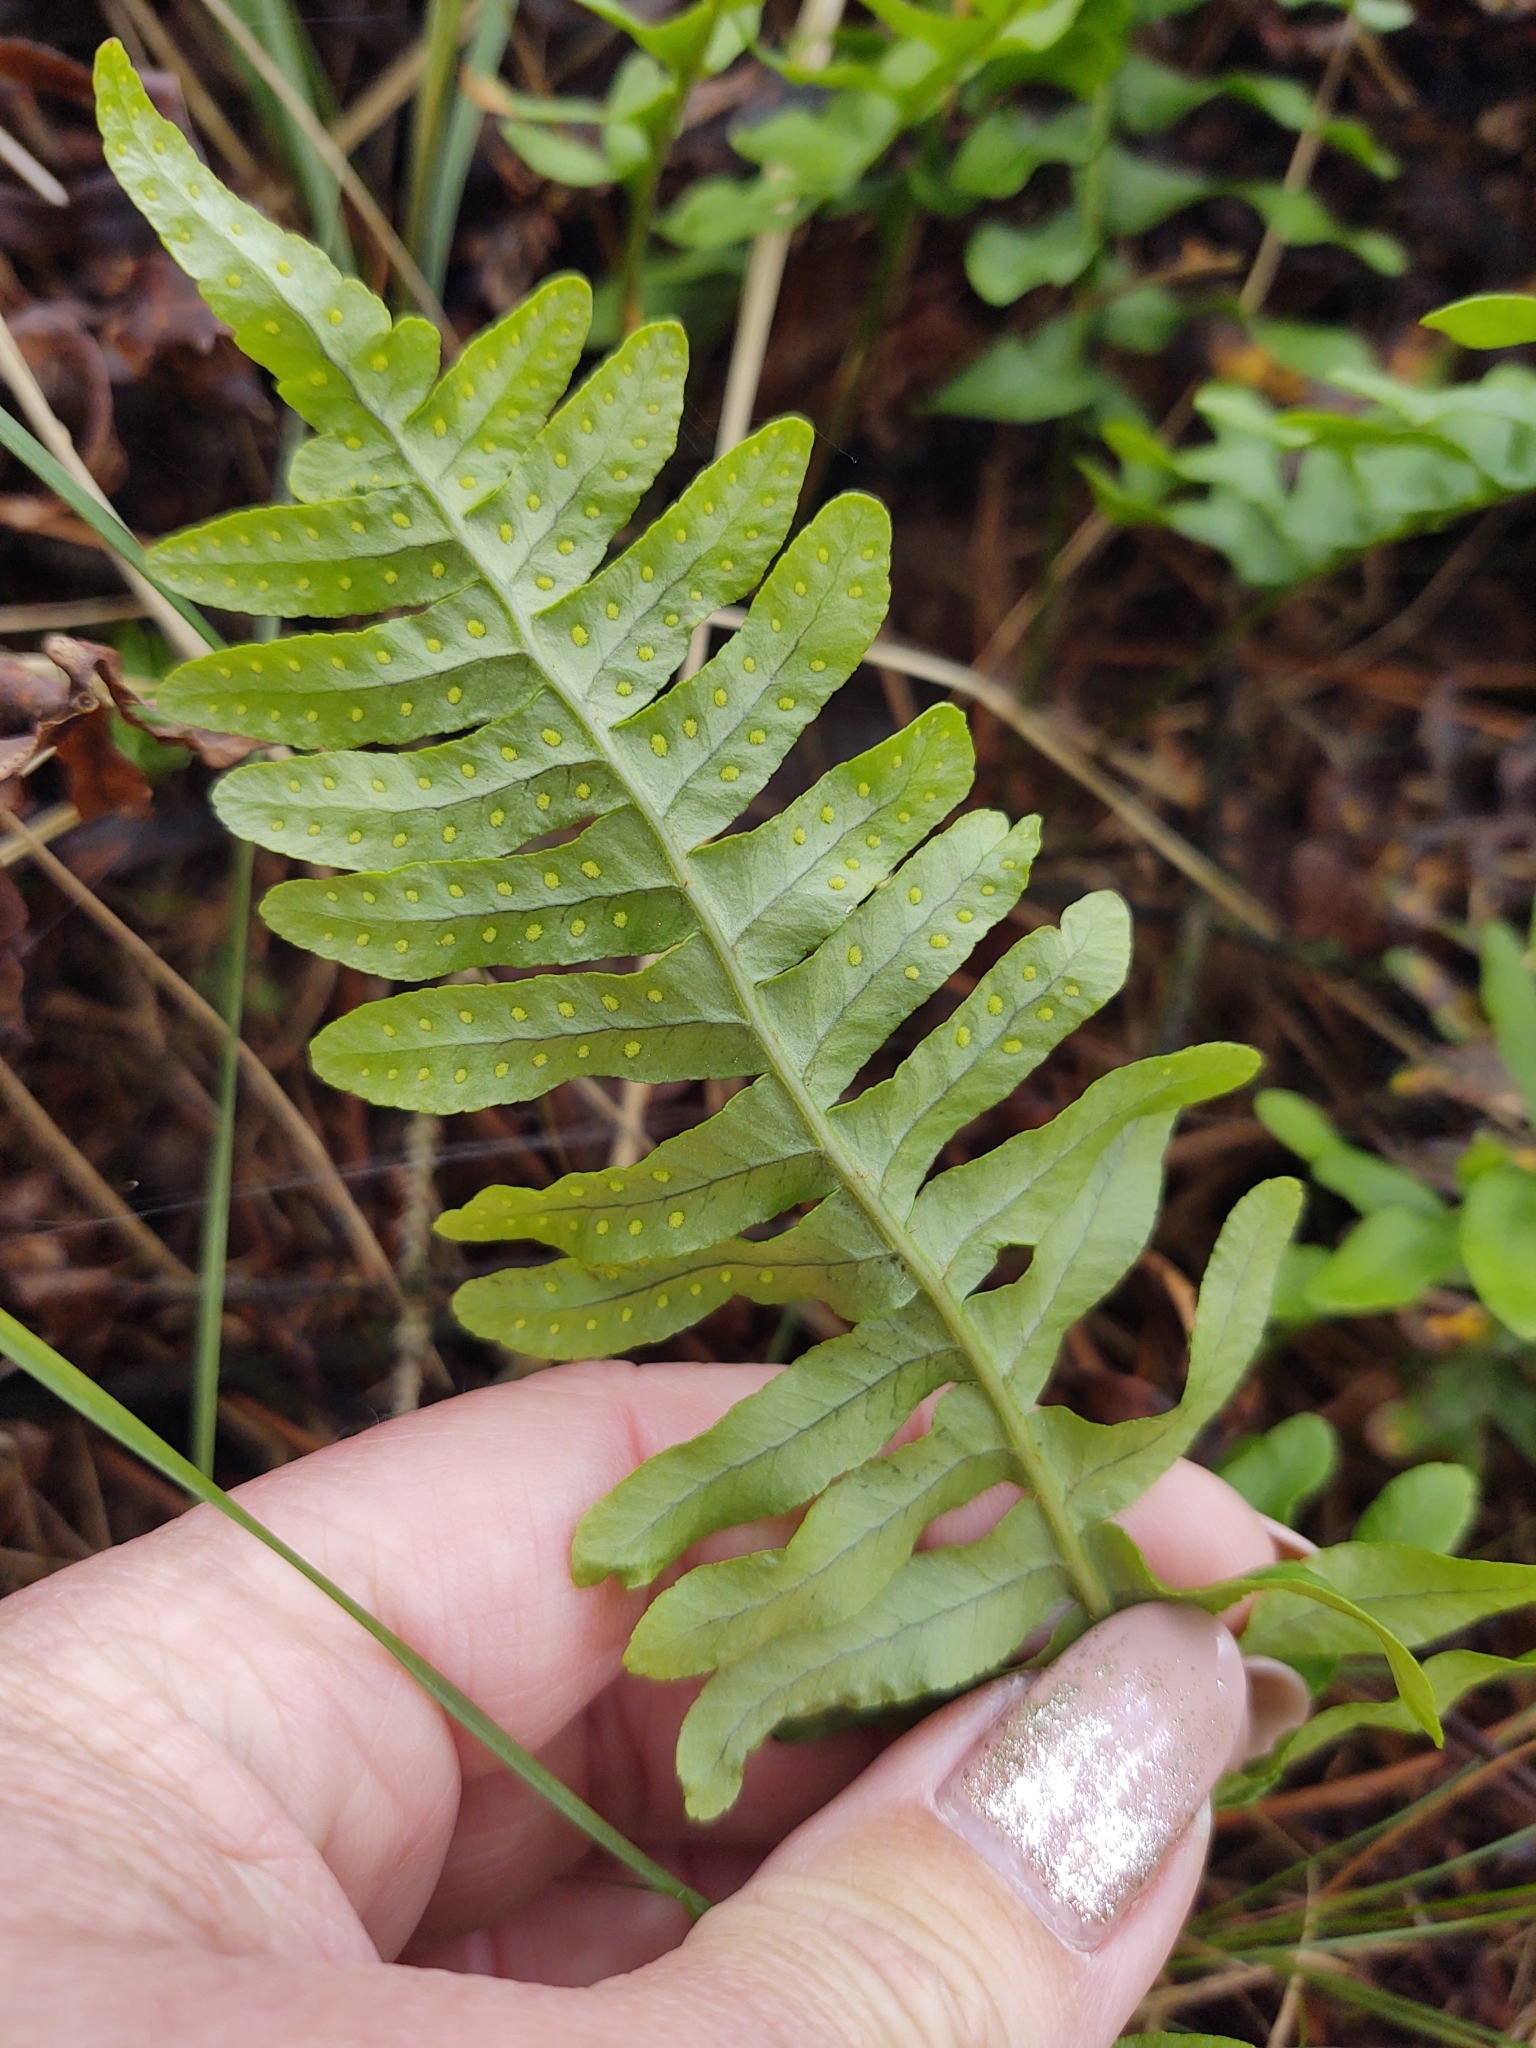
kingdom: Plantae
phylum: Tracheophyta
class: Polypodiopsida
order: Polypodiales
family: Polypodiaceae
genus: Polypodium
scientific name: Polypodium vulgare
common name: Common polypody
